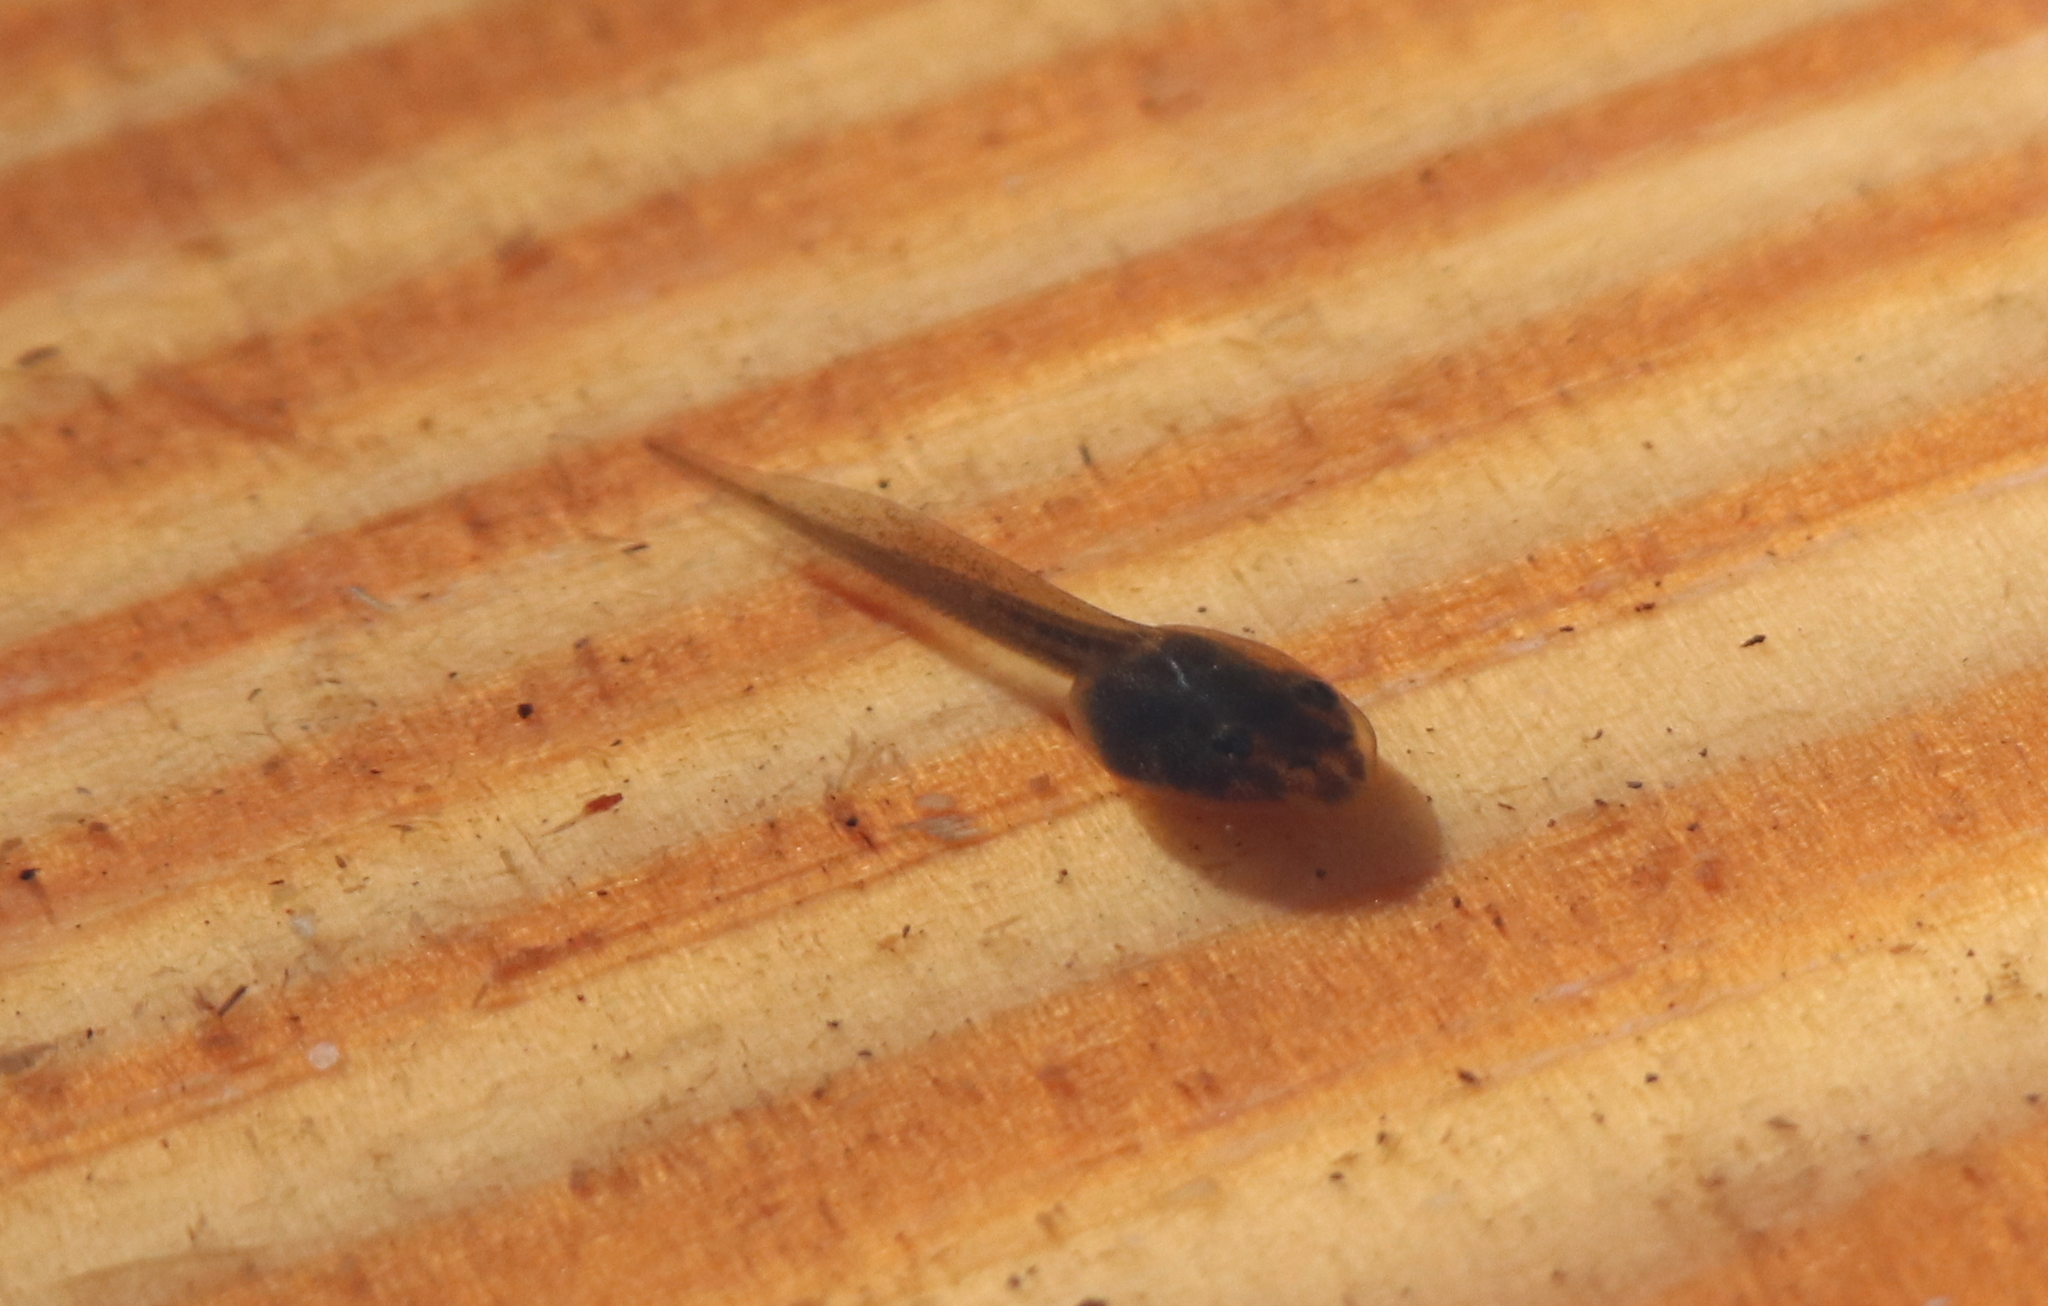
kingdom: Animalia
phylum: Chordata
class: Amphibia
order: Anura
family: Ranidae
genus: Lithobates
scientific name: Lithobates sevosus
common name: Dusky gopher frog
